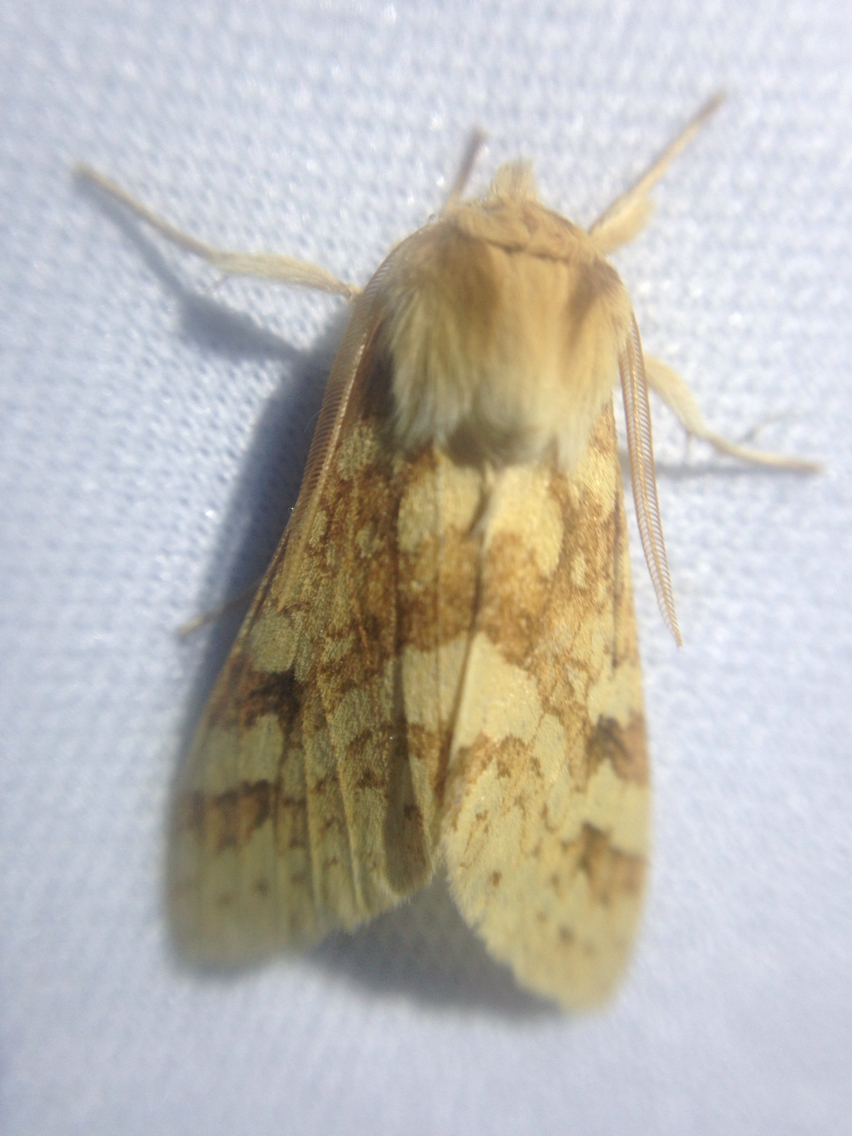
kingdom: Animalia
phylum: Arthropoda
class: Insecta
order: Lepidoptera
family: Erebidae
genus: Lophocampa
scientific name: Lophocampa maculata
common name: Spotted tussock moth
